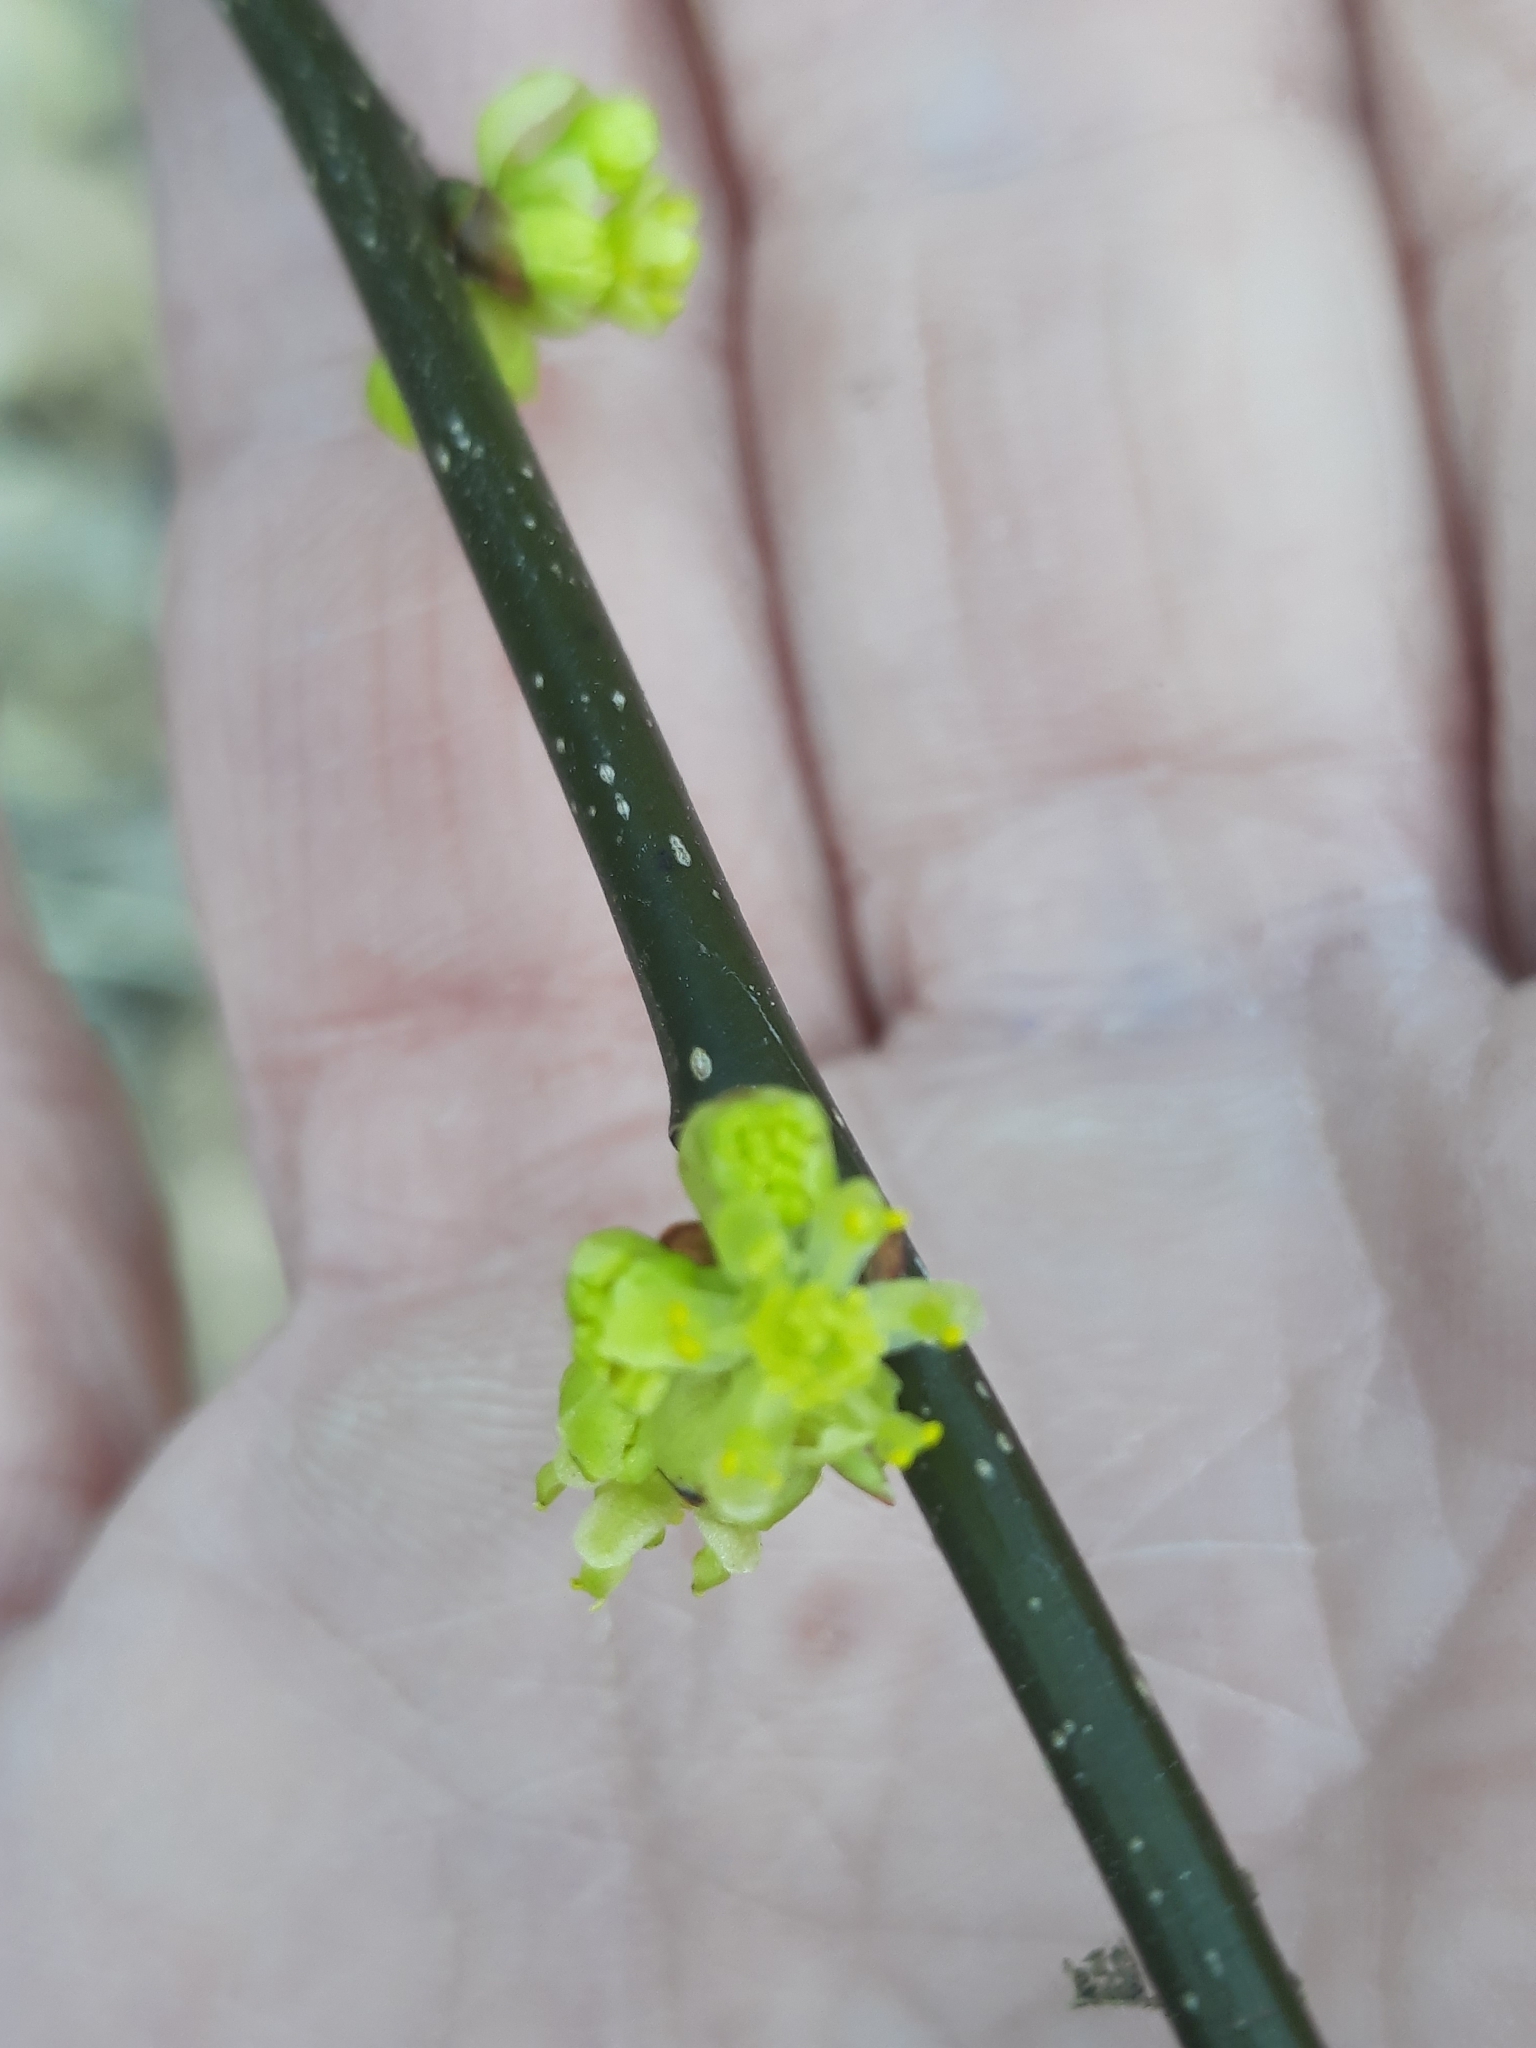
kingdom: Plantae
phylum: Tracheophyta
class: Magnoliopsida
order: Laurales
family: Lauraceae
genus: Lindera
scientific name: Lindera benzoin
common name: Spicebush
